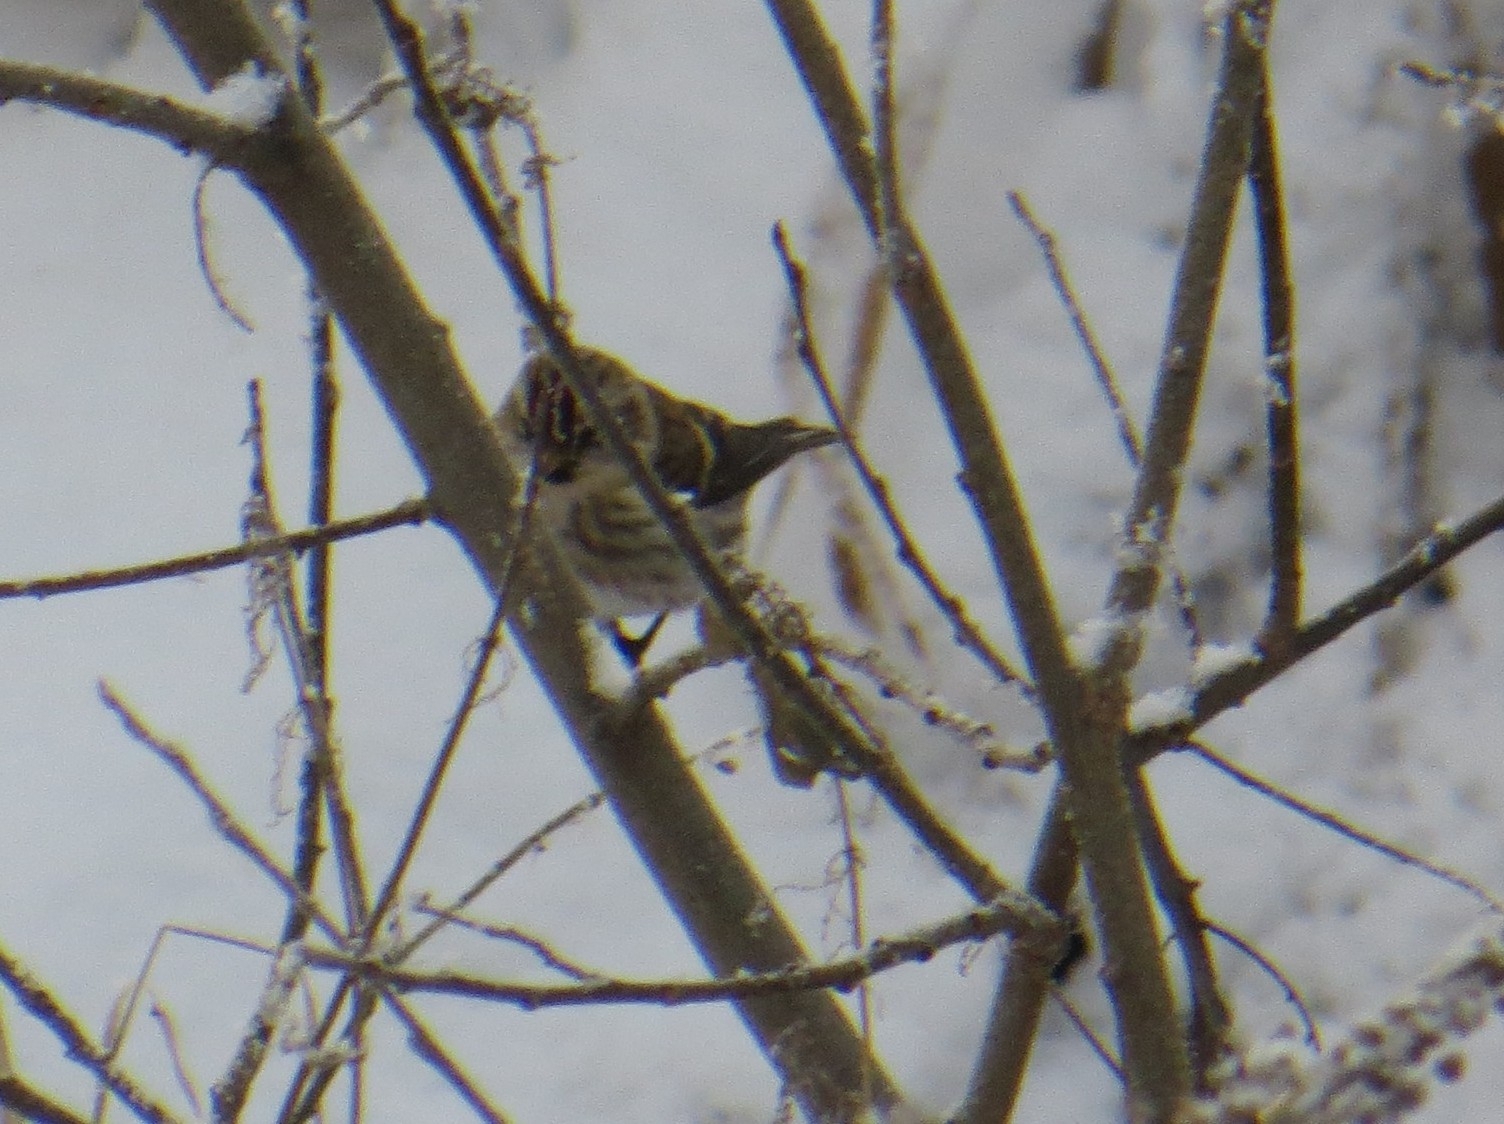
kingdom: Animalia
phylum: Chordata
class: Aves
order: Passeriformes
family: Fringillidae
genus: Acanthis
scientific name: Acanthis flammea
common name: Common redpoll
